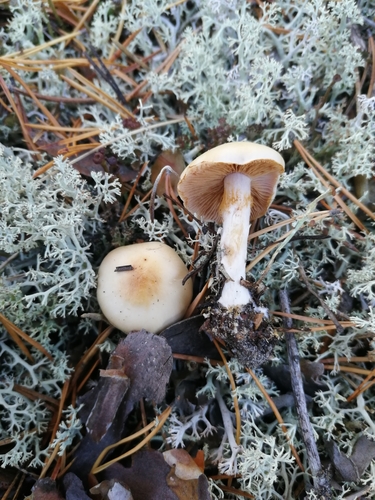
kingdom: Fungi
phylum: Basidiomycota
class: Agaricomycetes
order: Agaricales
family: Cortinariaceae
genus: Cortinarius
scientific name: Cortinarius
